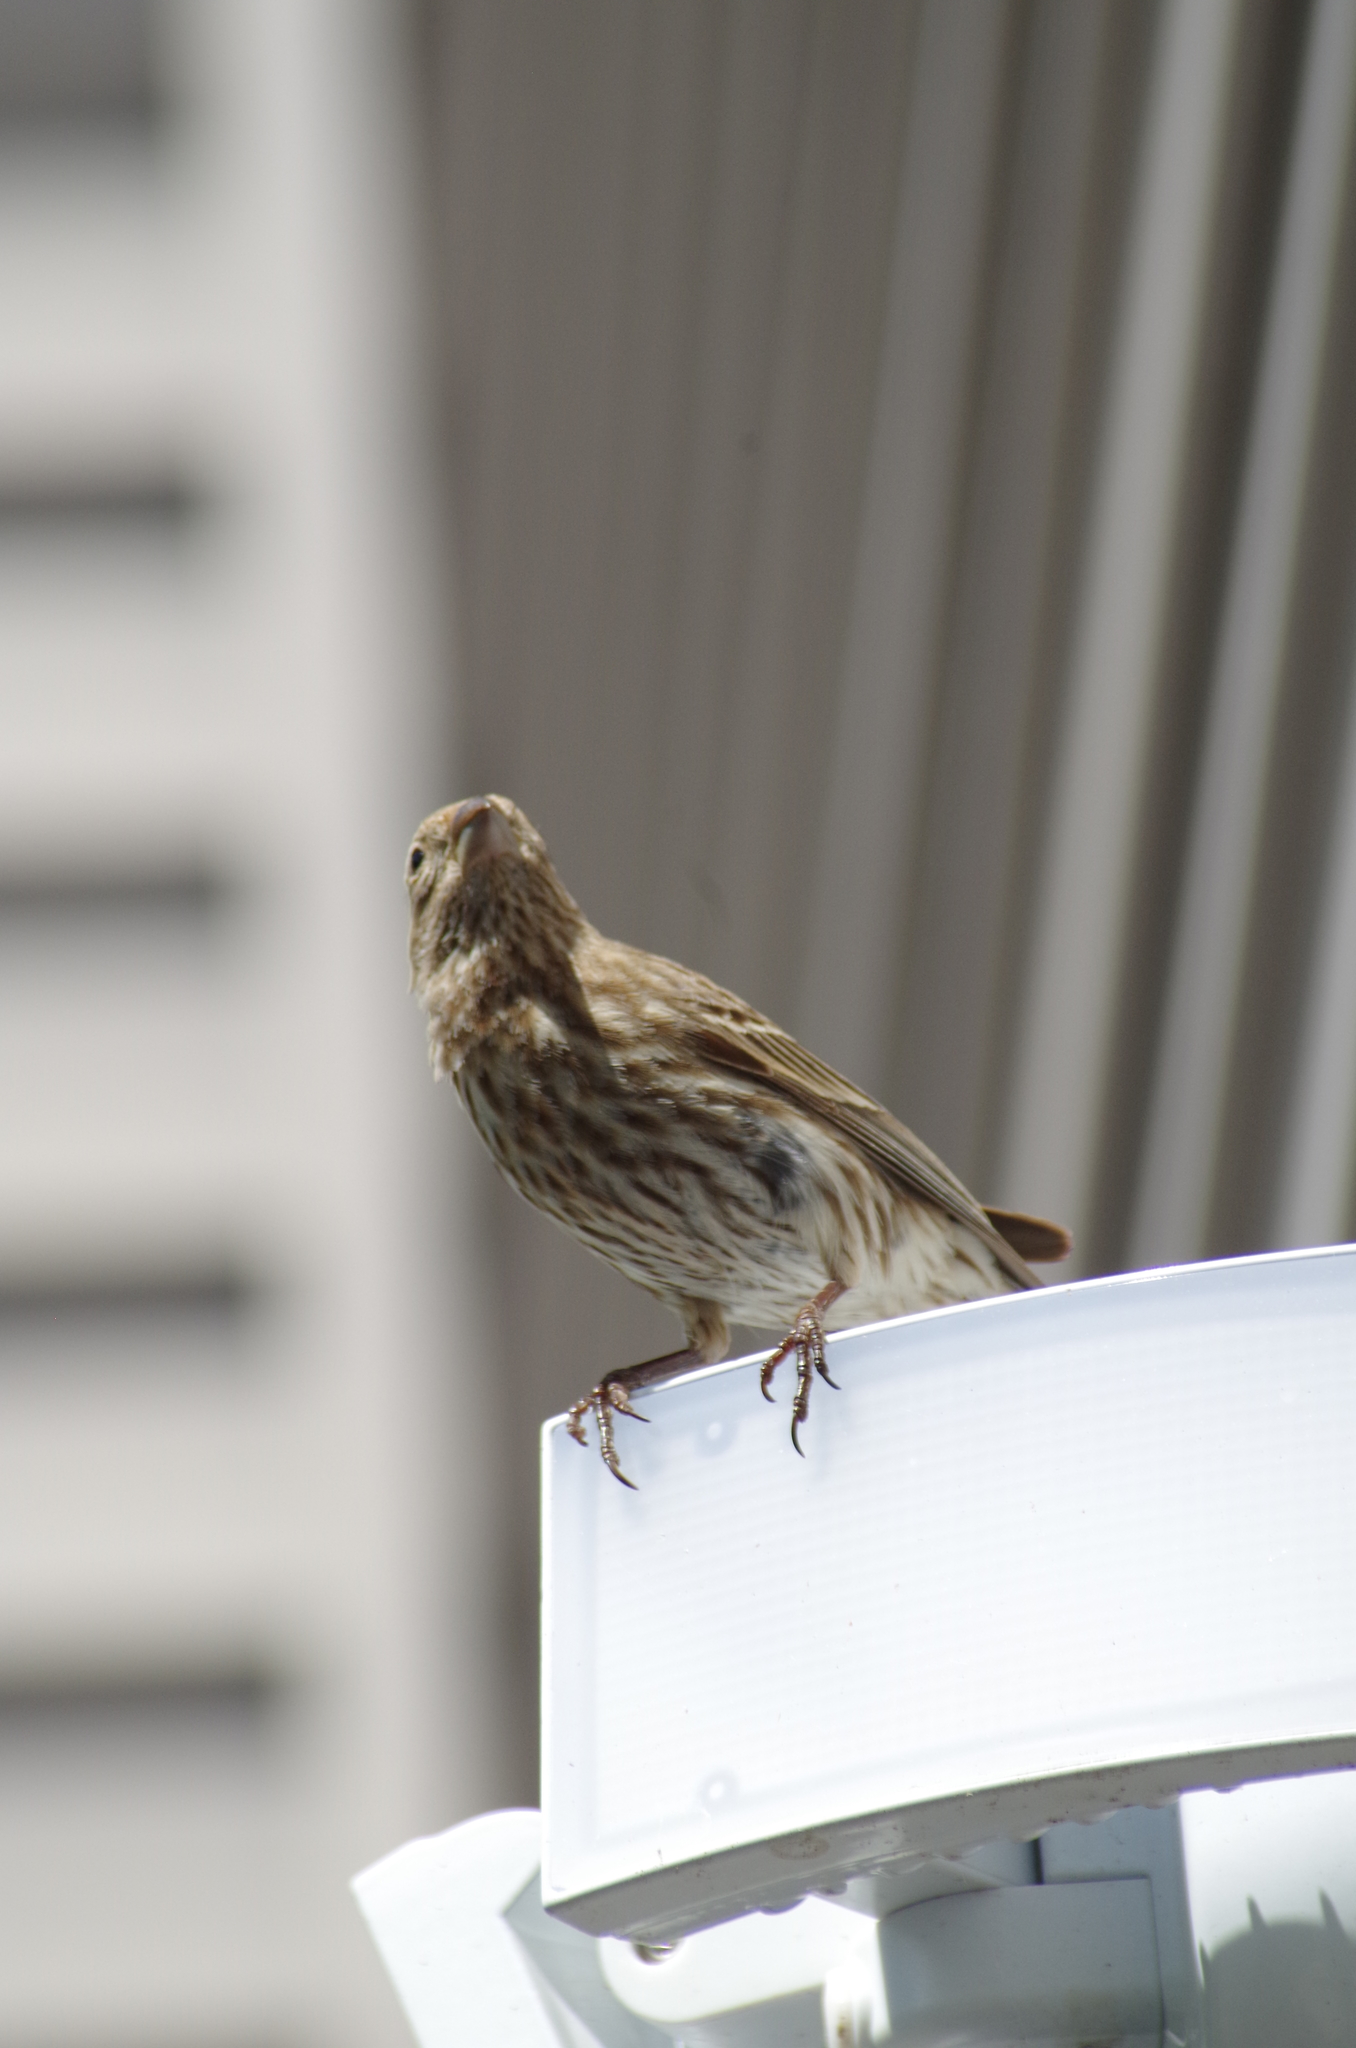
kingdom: Animalia
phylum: Chordata
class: Aves
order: Passeriformes
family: Fringillidae
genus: Haemorhous
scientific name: Haemorhous mexicanus
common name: House finch
